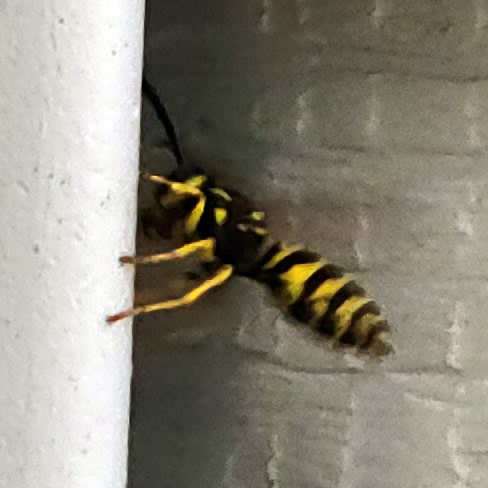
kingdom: Animalia
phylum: Arthropoda
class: Insecta
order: Hymenoptera
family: Vespidae
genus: Vespula
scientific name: Vespula maculifrons
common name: Eastern yellowjacket
